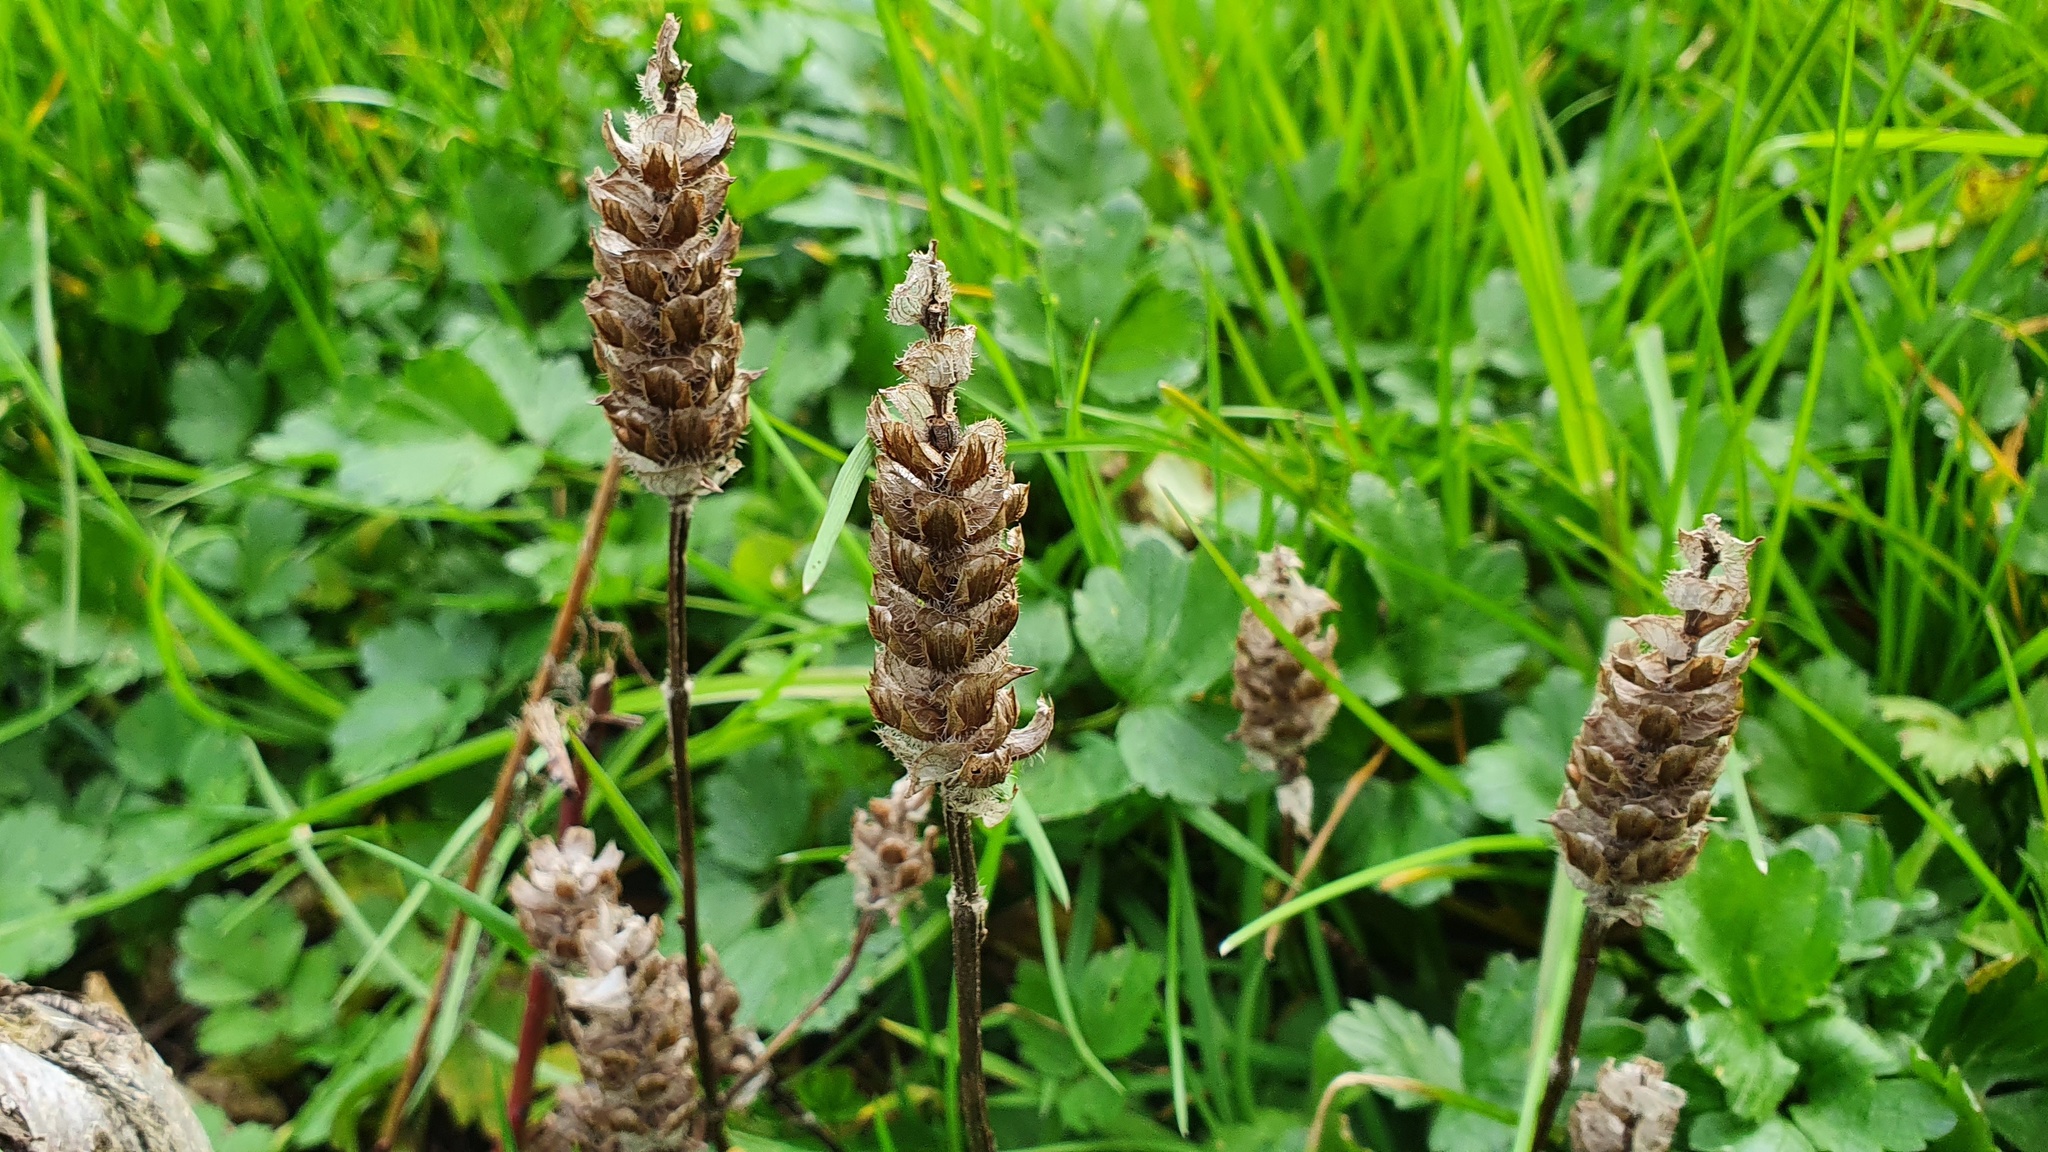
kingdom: Plantae
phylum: Tracheophyta
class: Magnoliopsida
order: Lamiales
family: Lamiaceae
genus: Prunella
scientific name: Prunella vulgaris
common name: Heal-all
